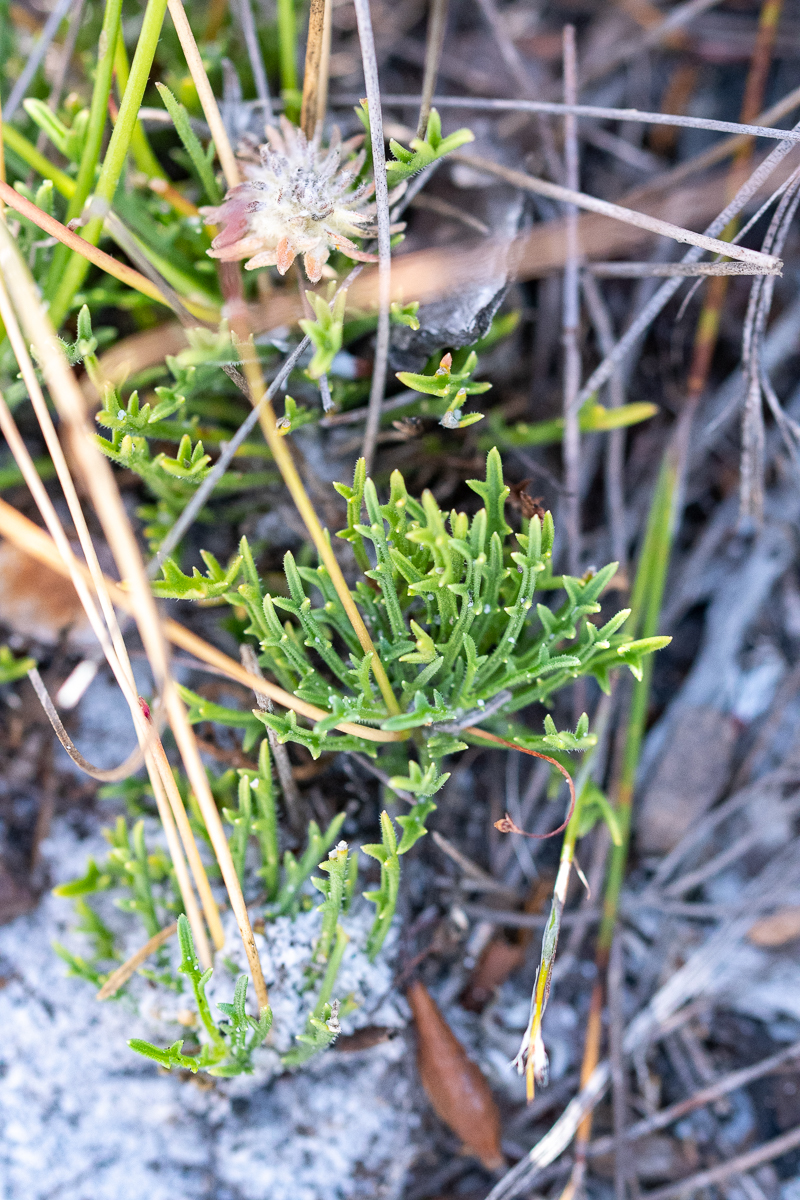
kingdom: Plantae
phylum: Tracheophyta
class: Magnoliopsida
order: Asterales
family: Campanulaceae
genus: Lobelia
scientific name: Lobelia chamaepitys
